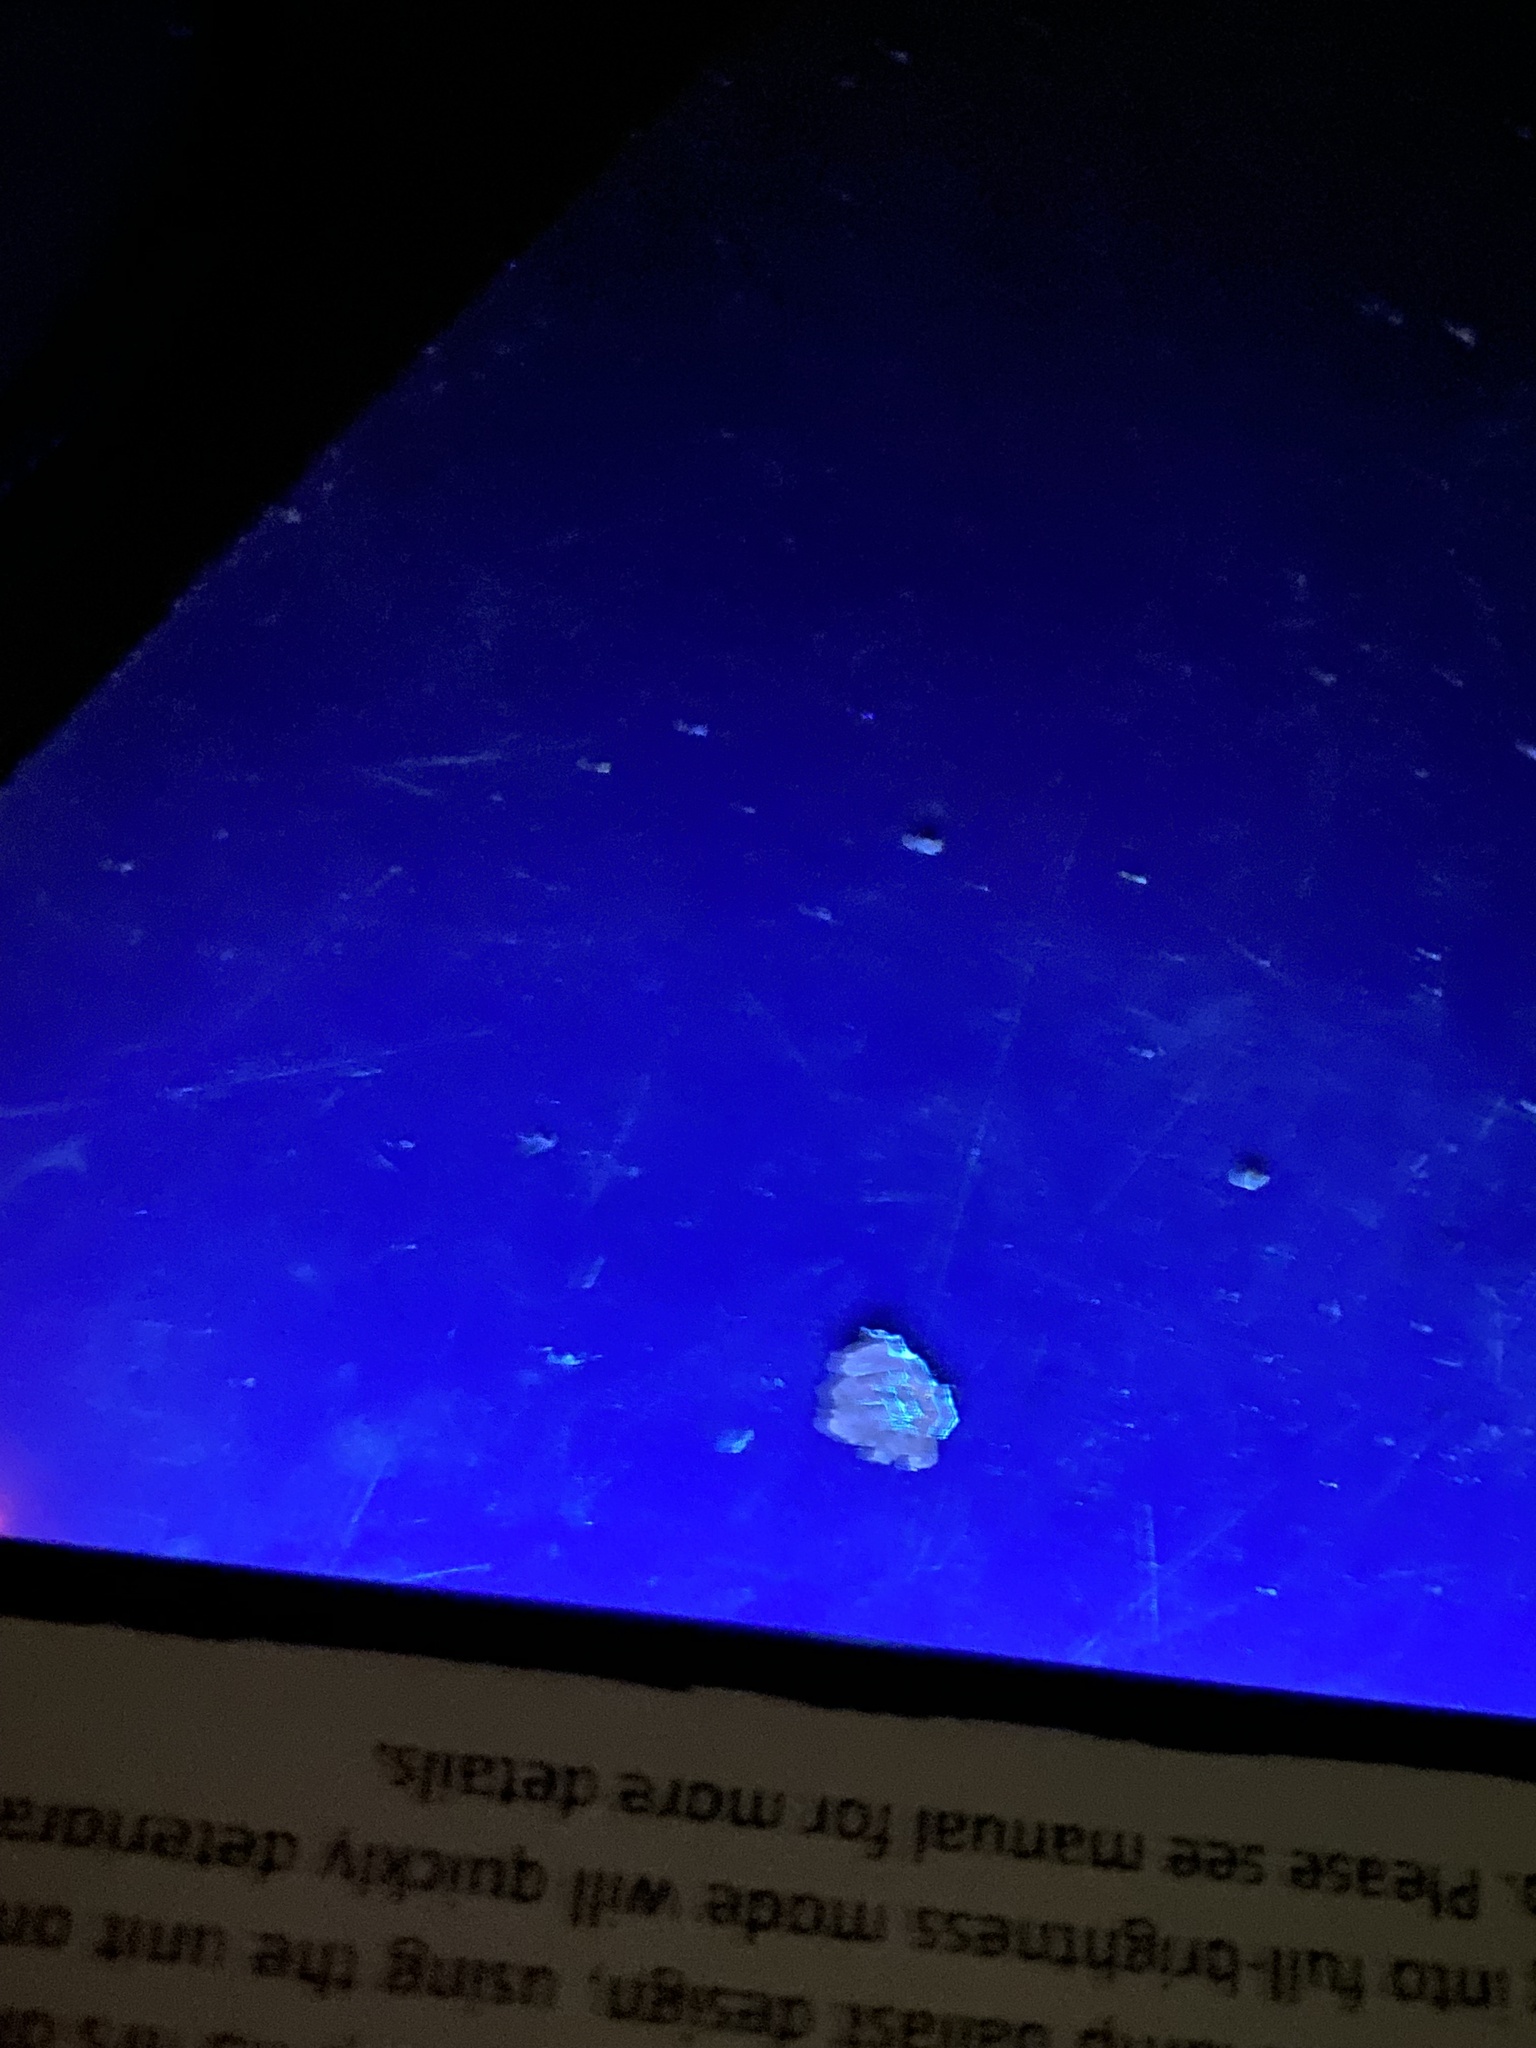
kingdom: Fungi
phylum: Ascomycota
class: Lecanoromycetes
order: Lecanorales
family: Parmeliaceae
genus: Parmotrema
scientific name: Parmotrema arnoldii
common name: Arnold's parmotrema lichen
